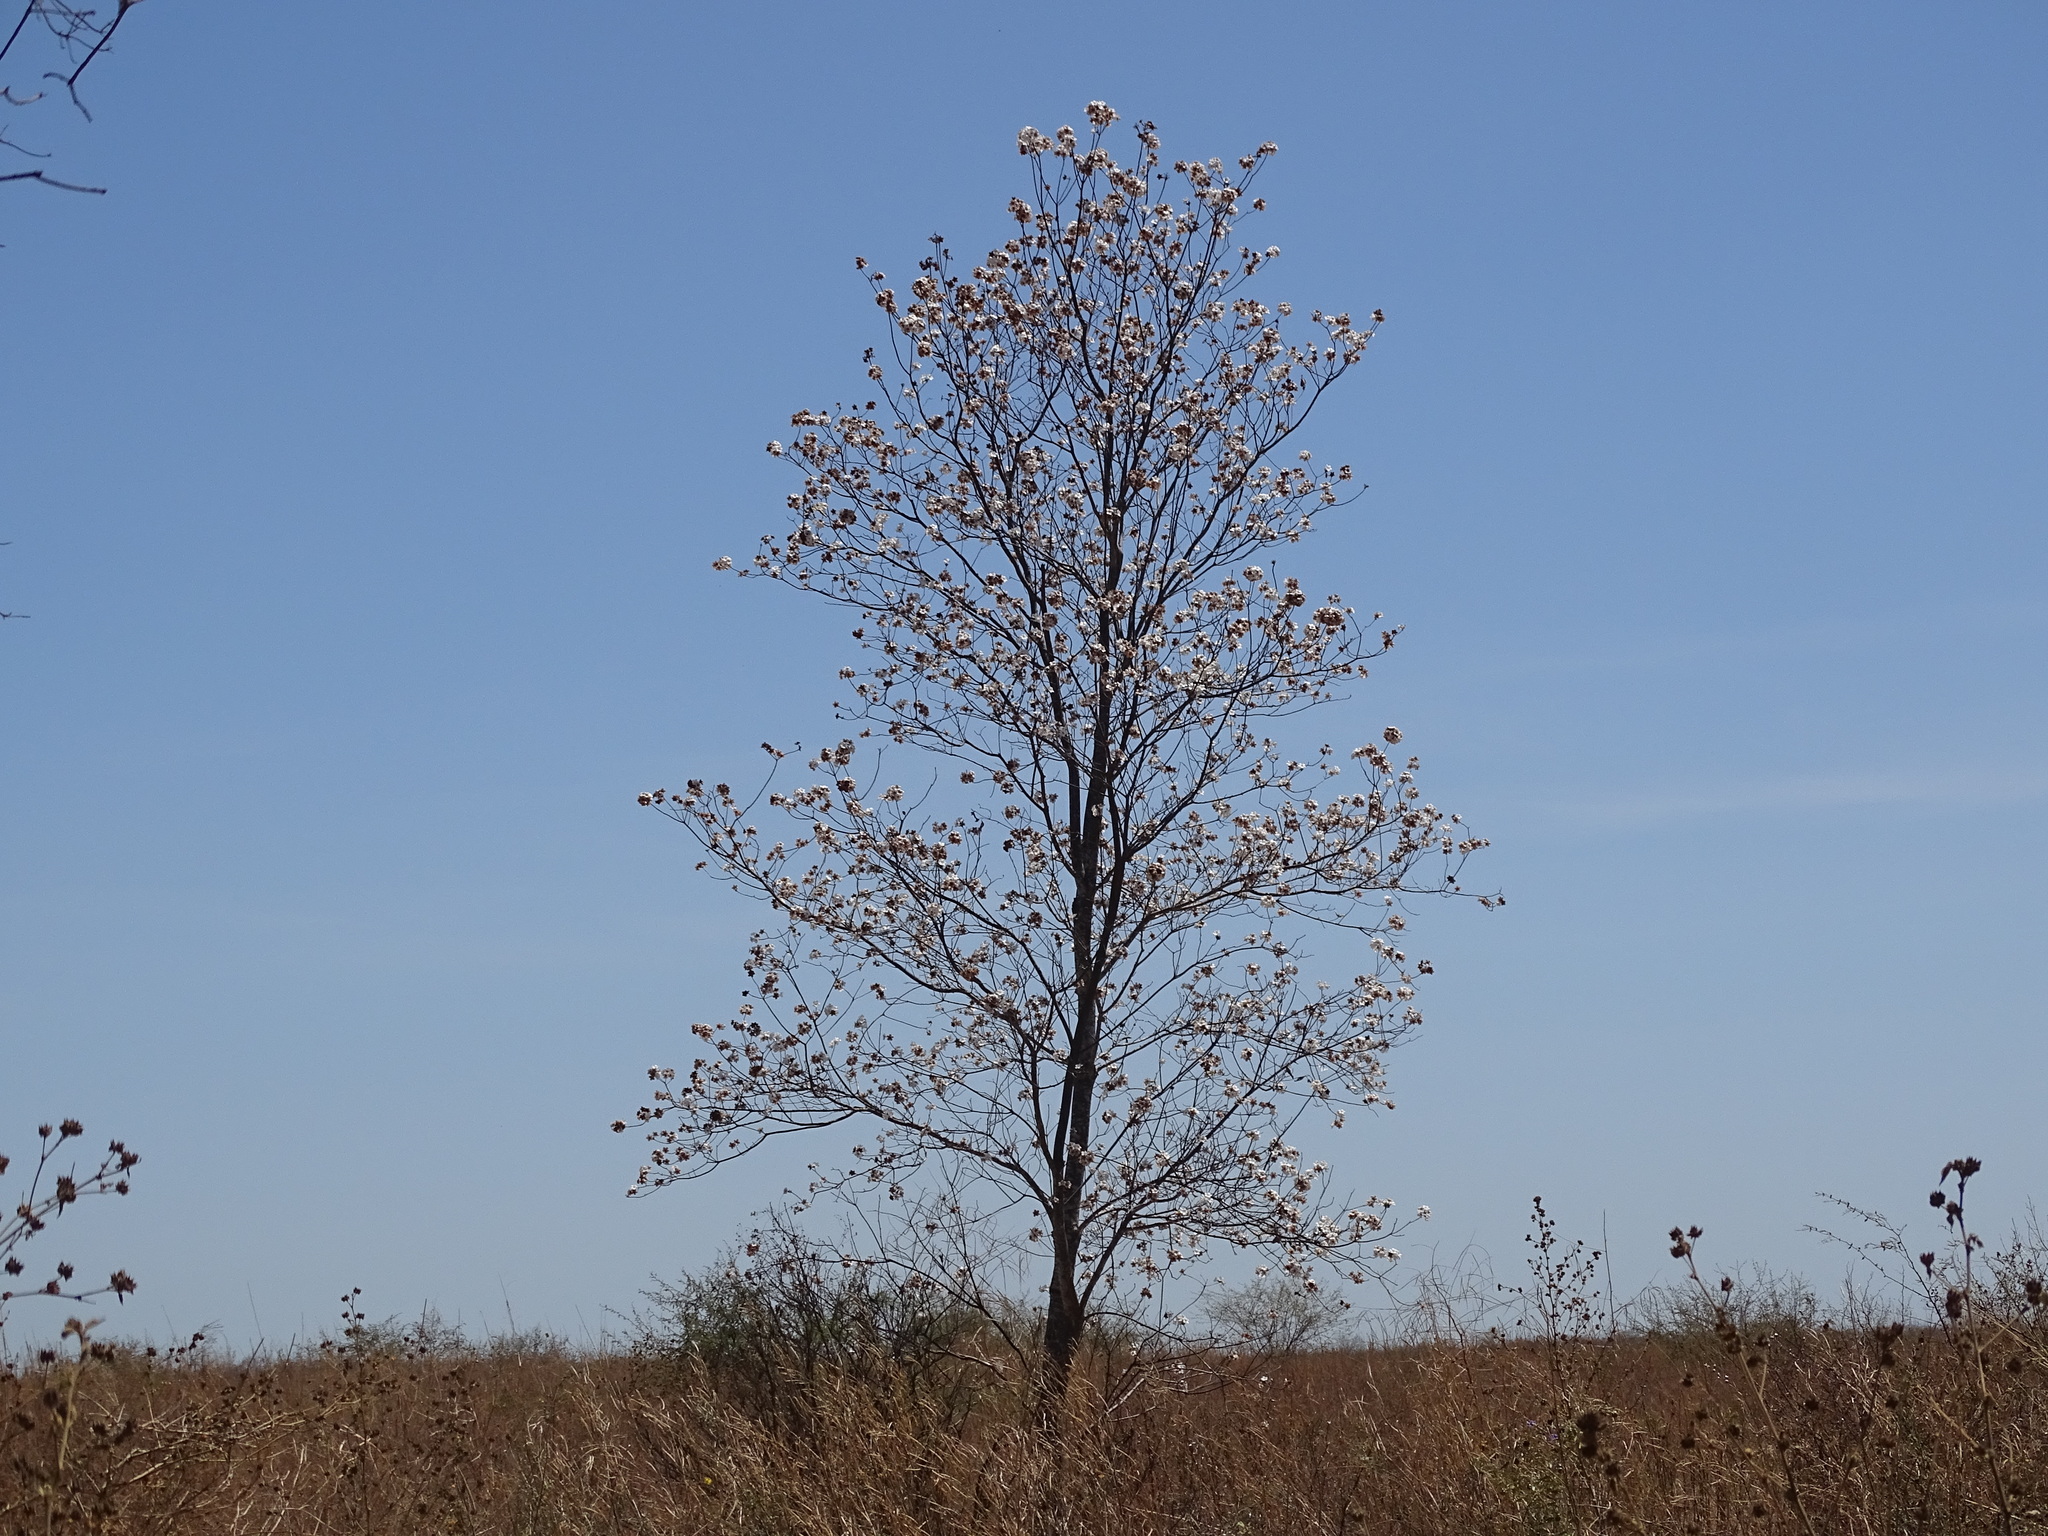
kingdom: Plantae
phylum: Tracheophyta
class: Magnoliopsida
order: Boraginales
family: Cordiaceae
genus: Cordia
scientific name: Cordia sonorae
